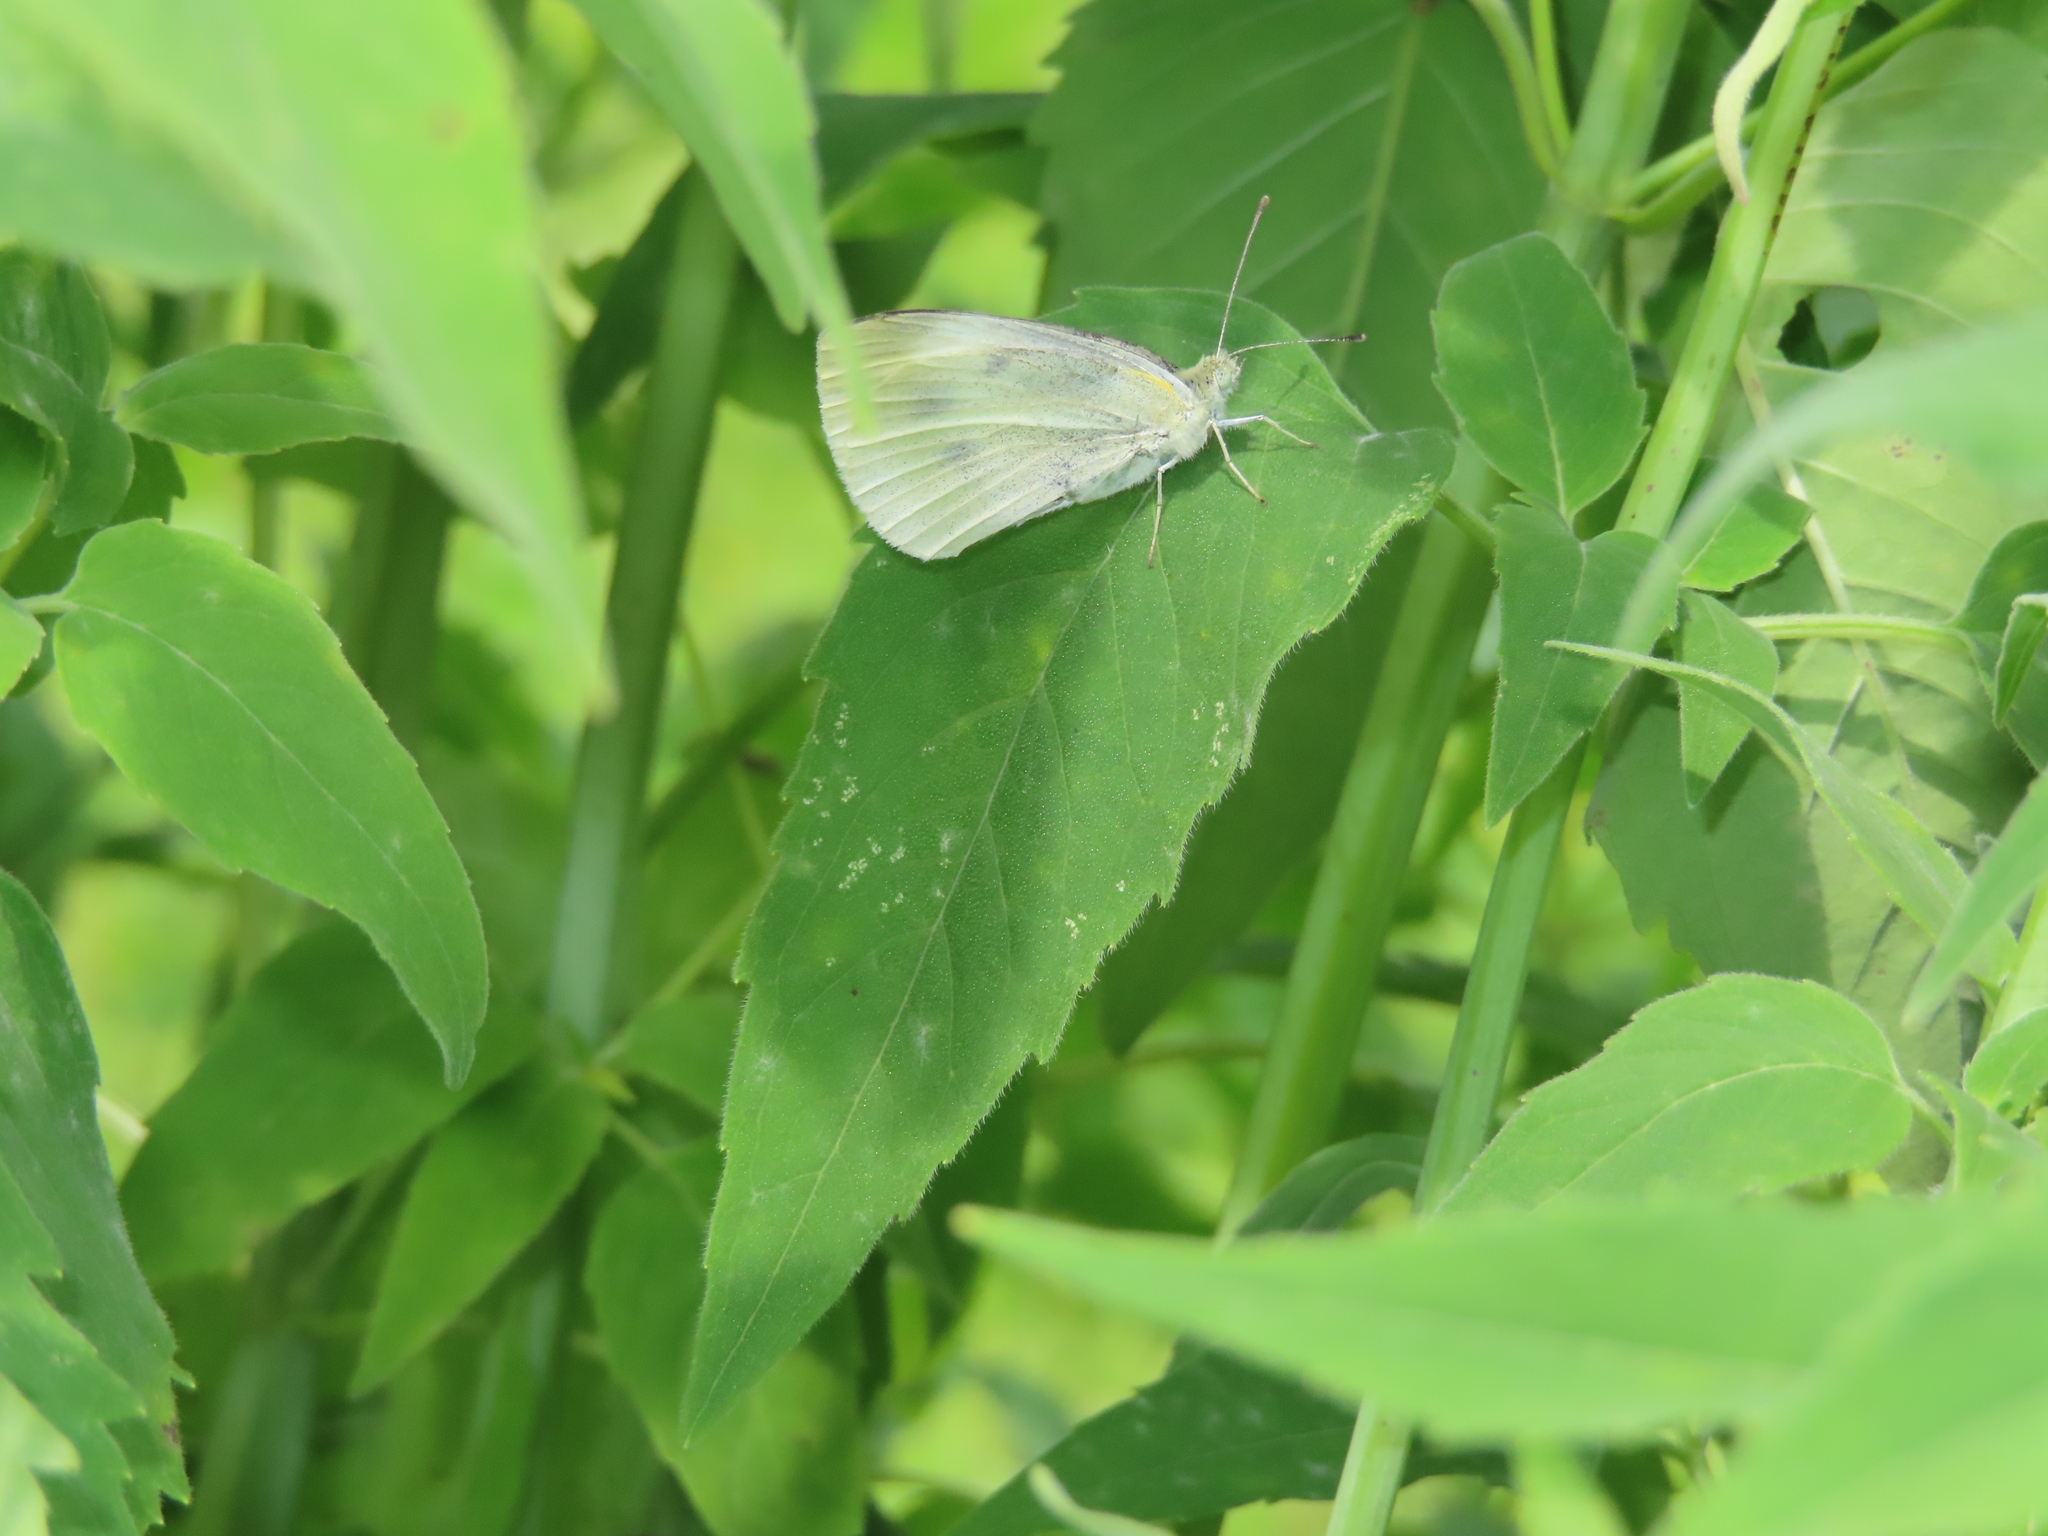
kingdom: Animalia
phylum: Arthropoda
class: Insecta
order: Lepidoptera
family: Pieridae
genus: Pieris
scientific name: Pieris rapae
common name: Small white
